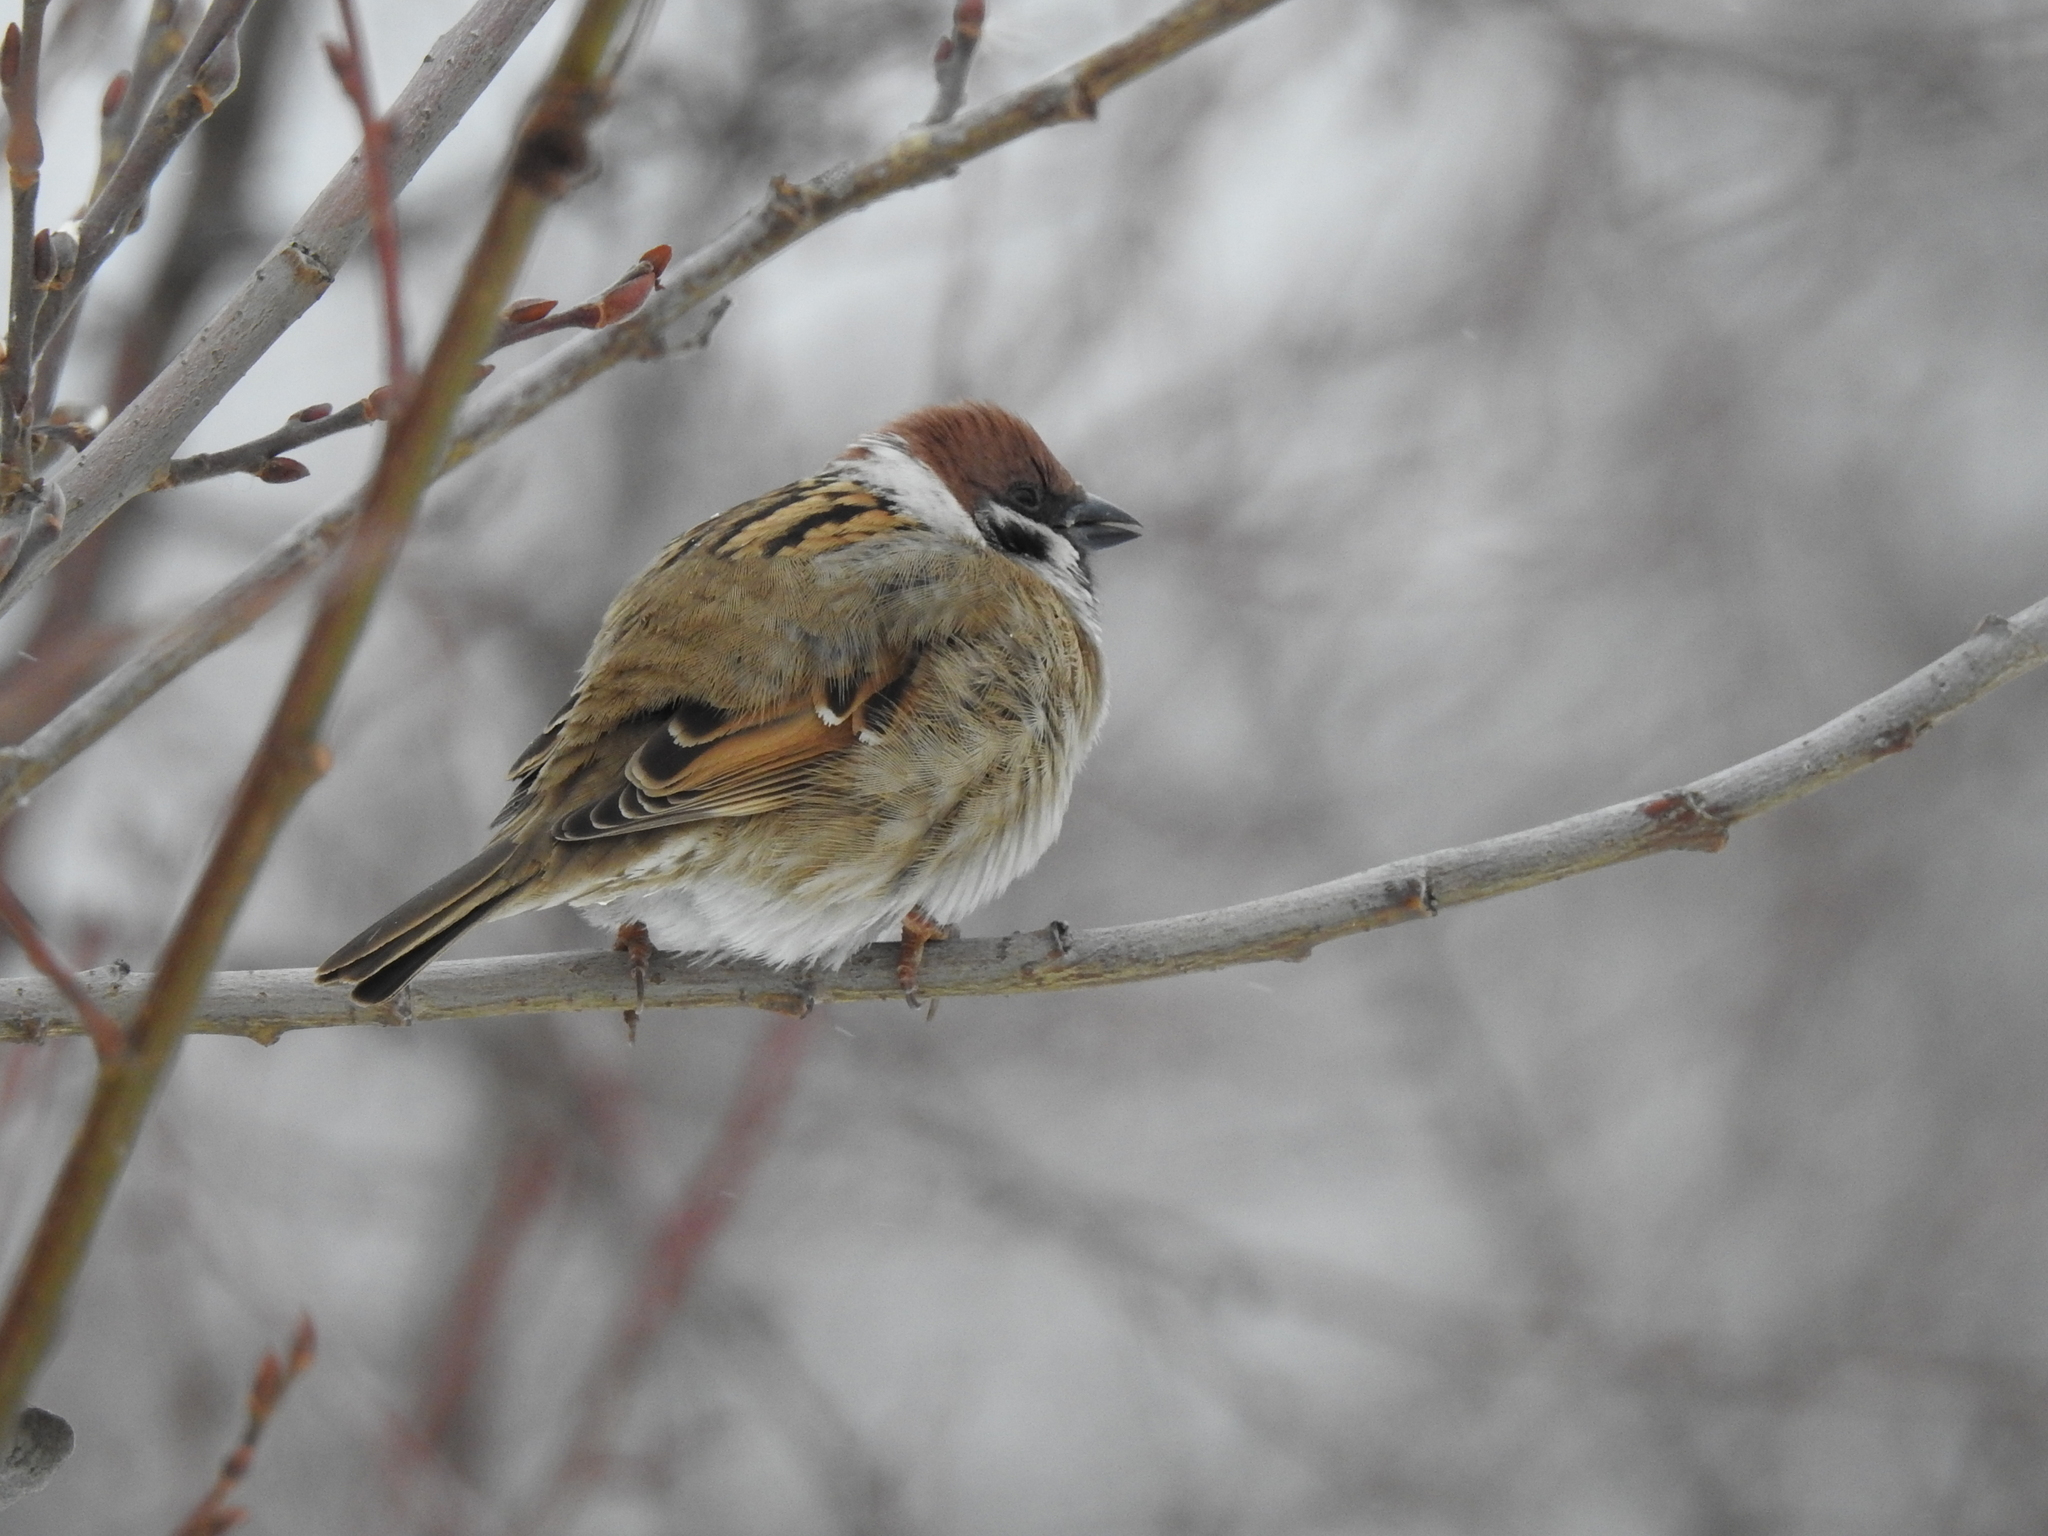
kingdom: Animalia
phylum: Chordata
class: Aves
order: Passeriformes
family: Passeridae
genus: Passer
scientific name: Passer montanus
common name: Eurasian tree sparrow
